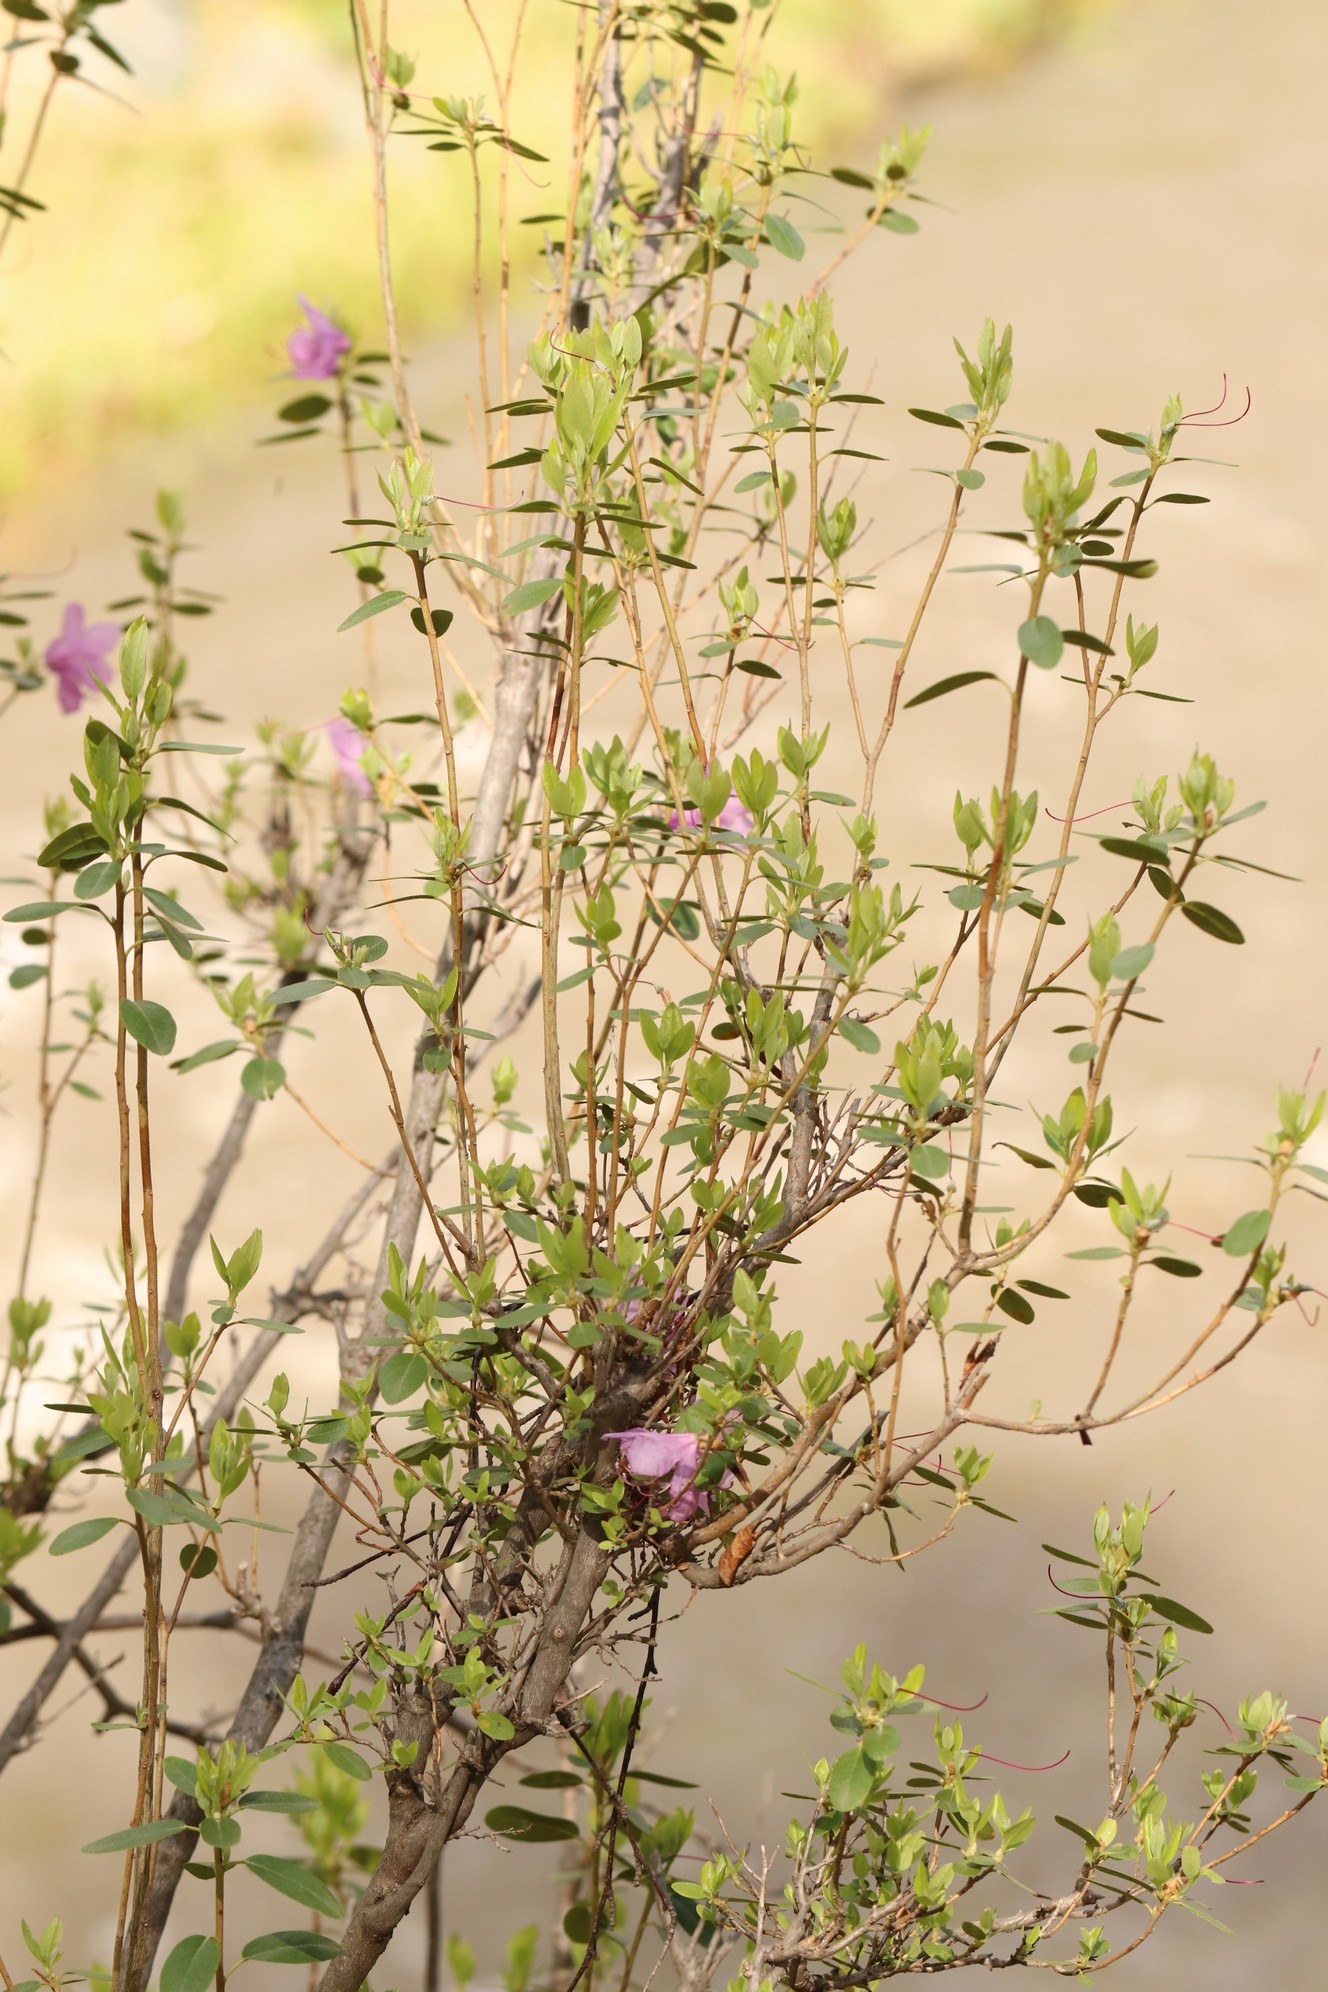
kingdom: Plantae
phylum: Tracheophyta
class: Magnoliopsida
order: Ericales
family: Ericaceae
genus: Rhododendron
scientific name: Rhododendron dauricum
